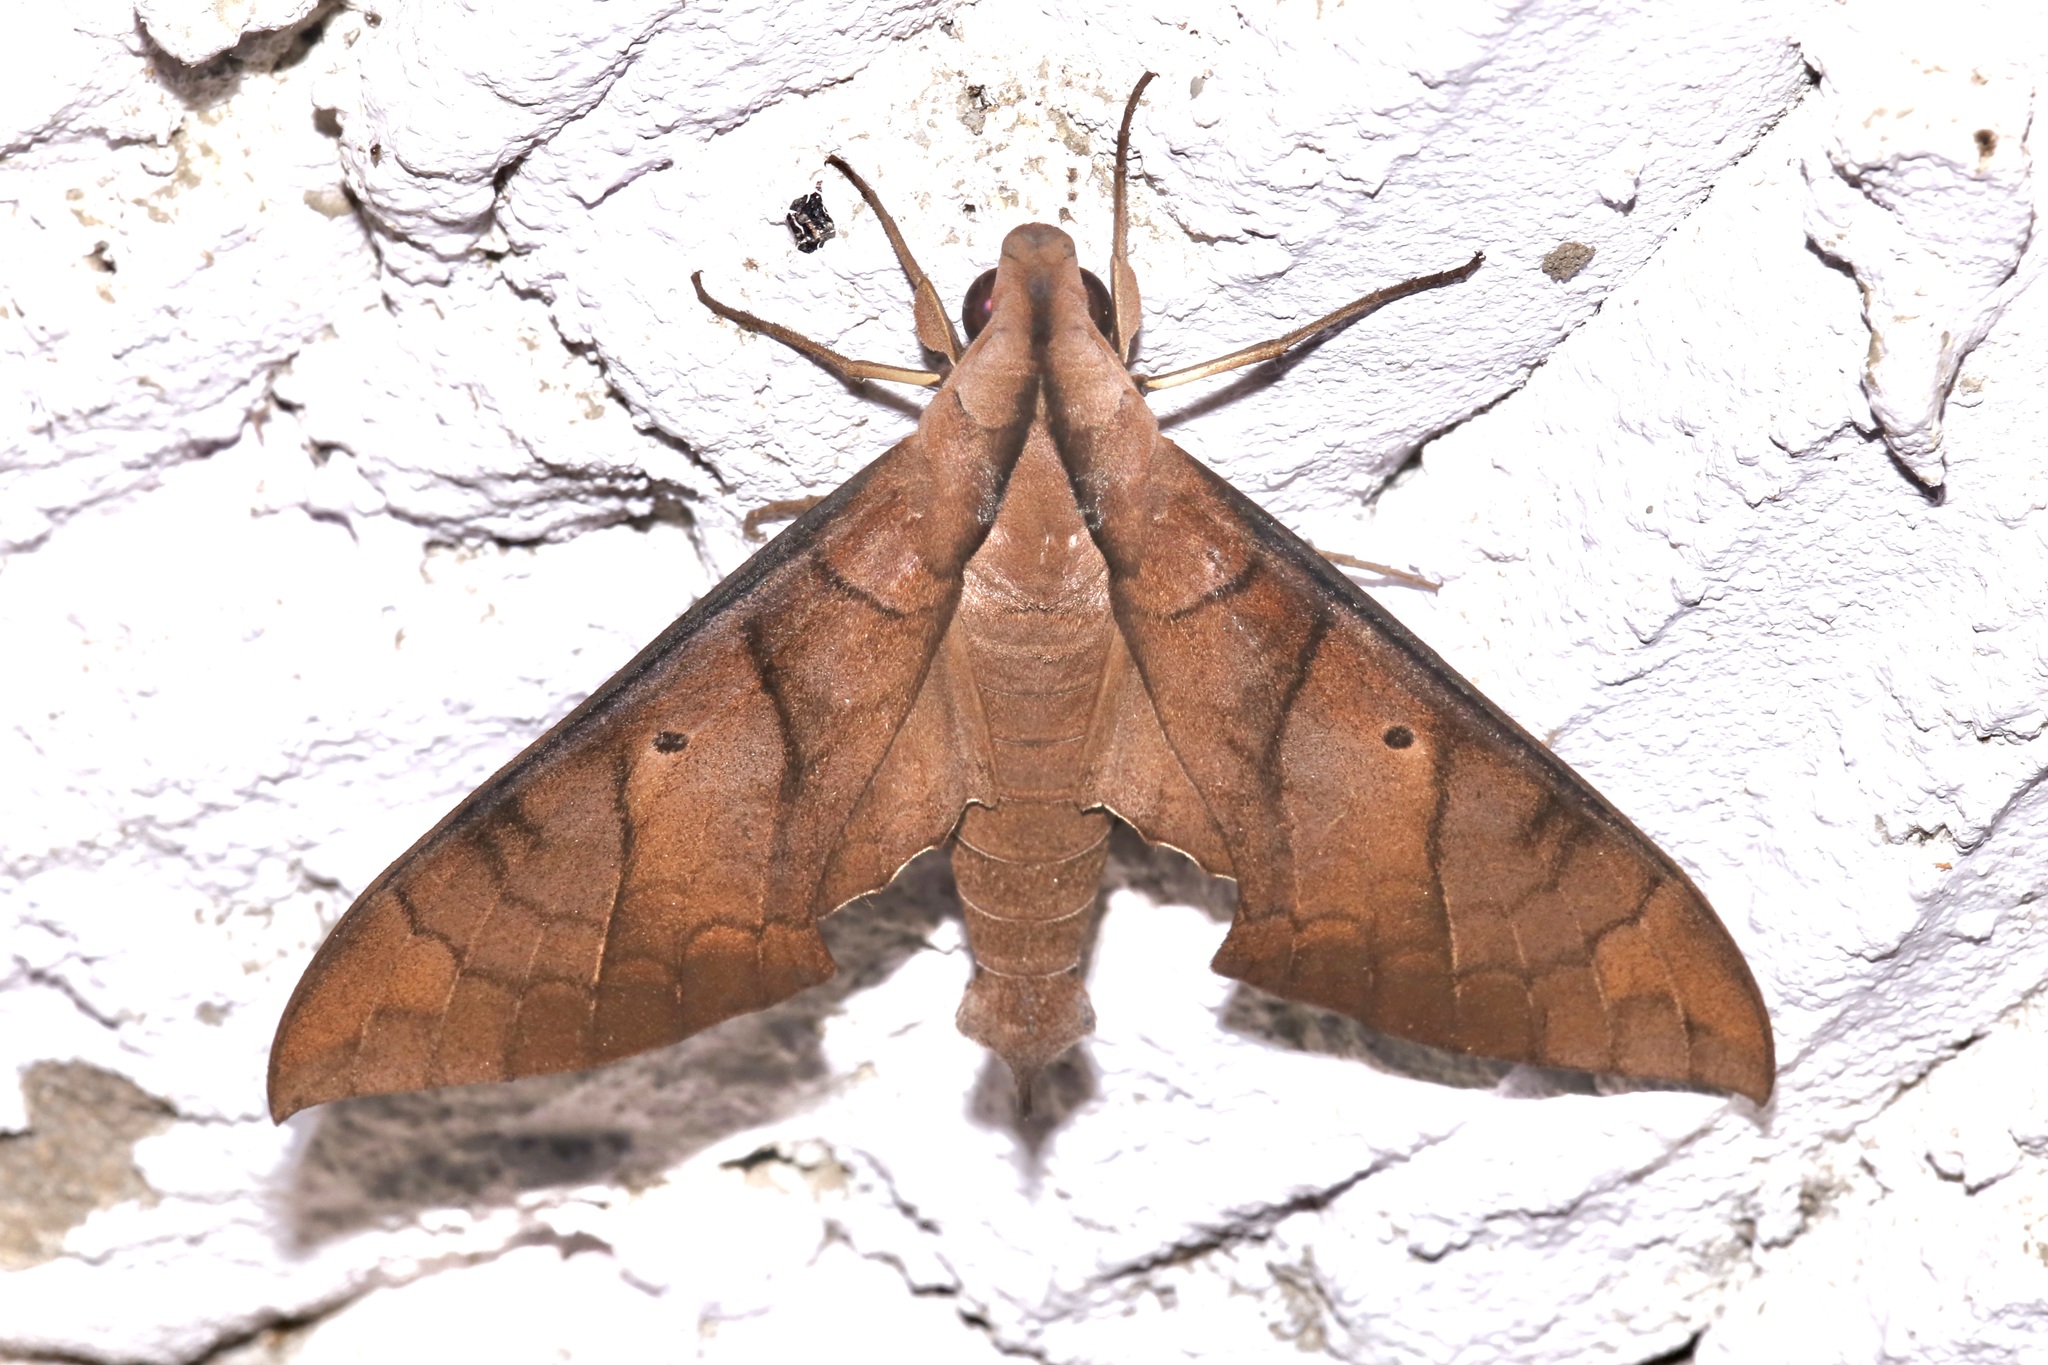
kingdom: Animalia
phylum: Arthropoda
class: Insecta
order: Lepidoptera
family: Sphingidae
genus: Pachylia
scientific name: Pachylia darceta
